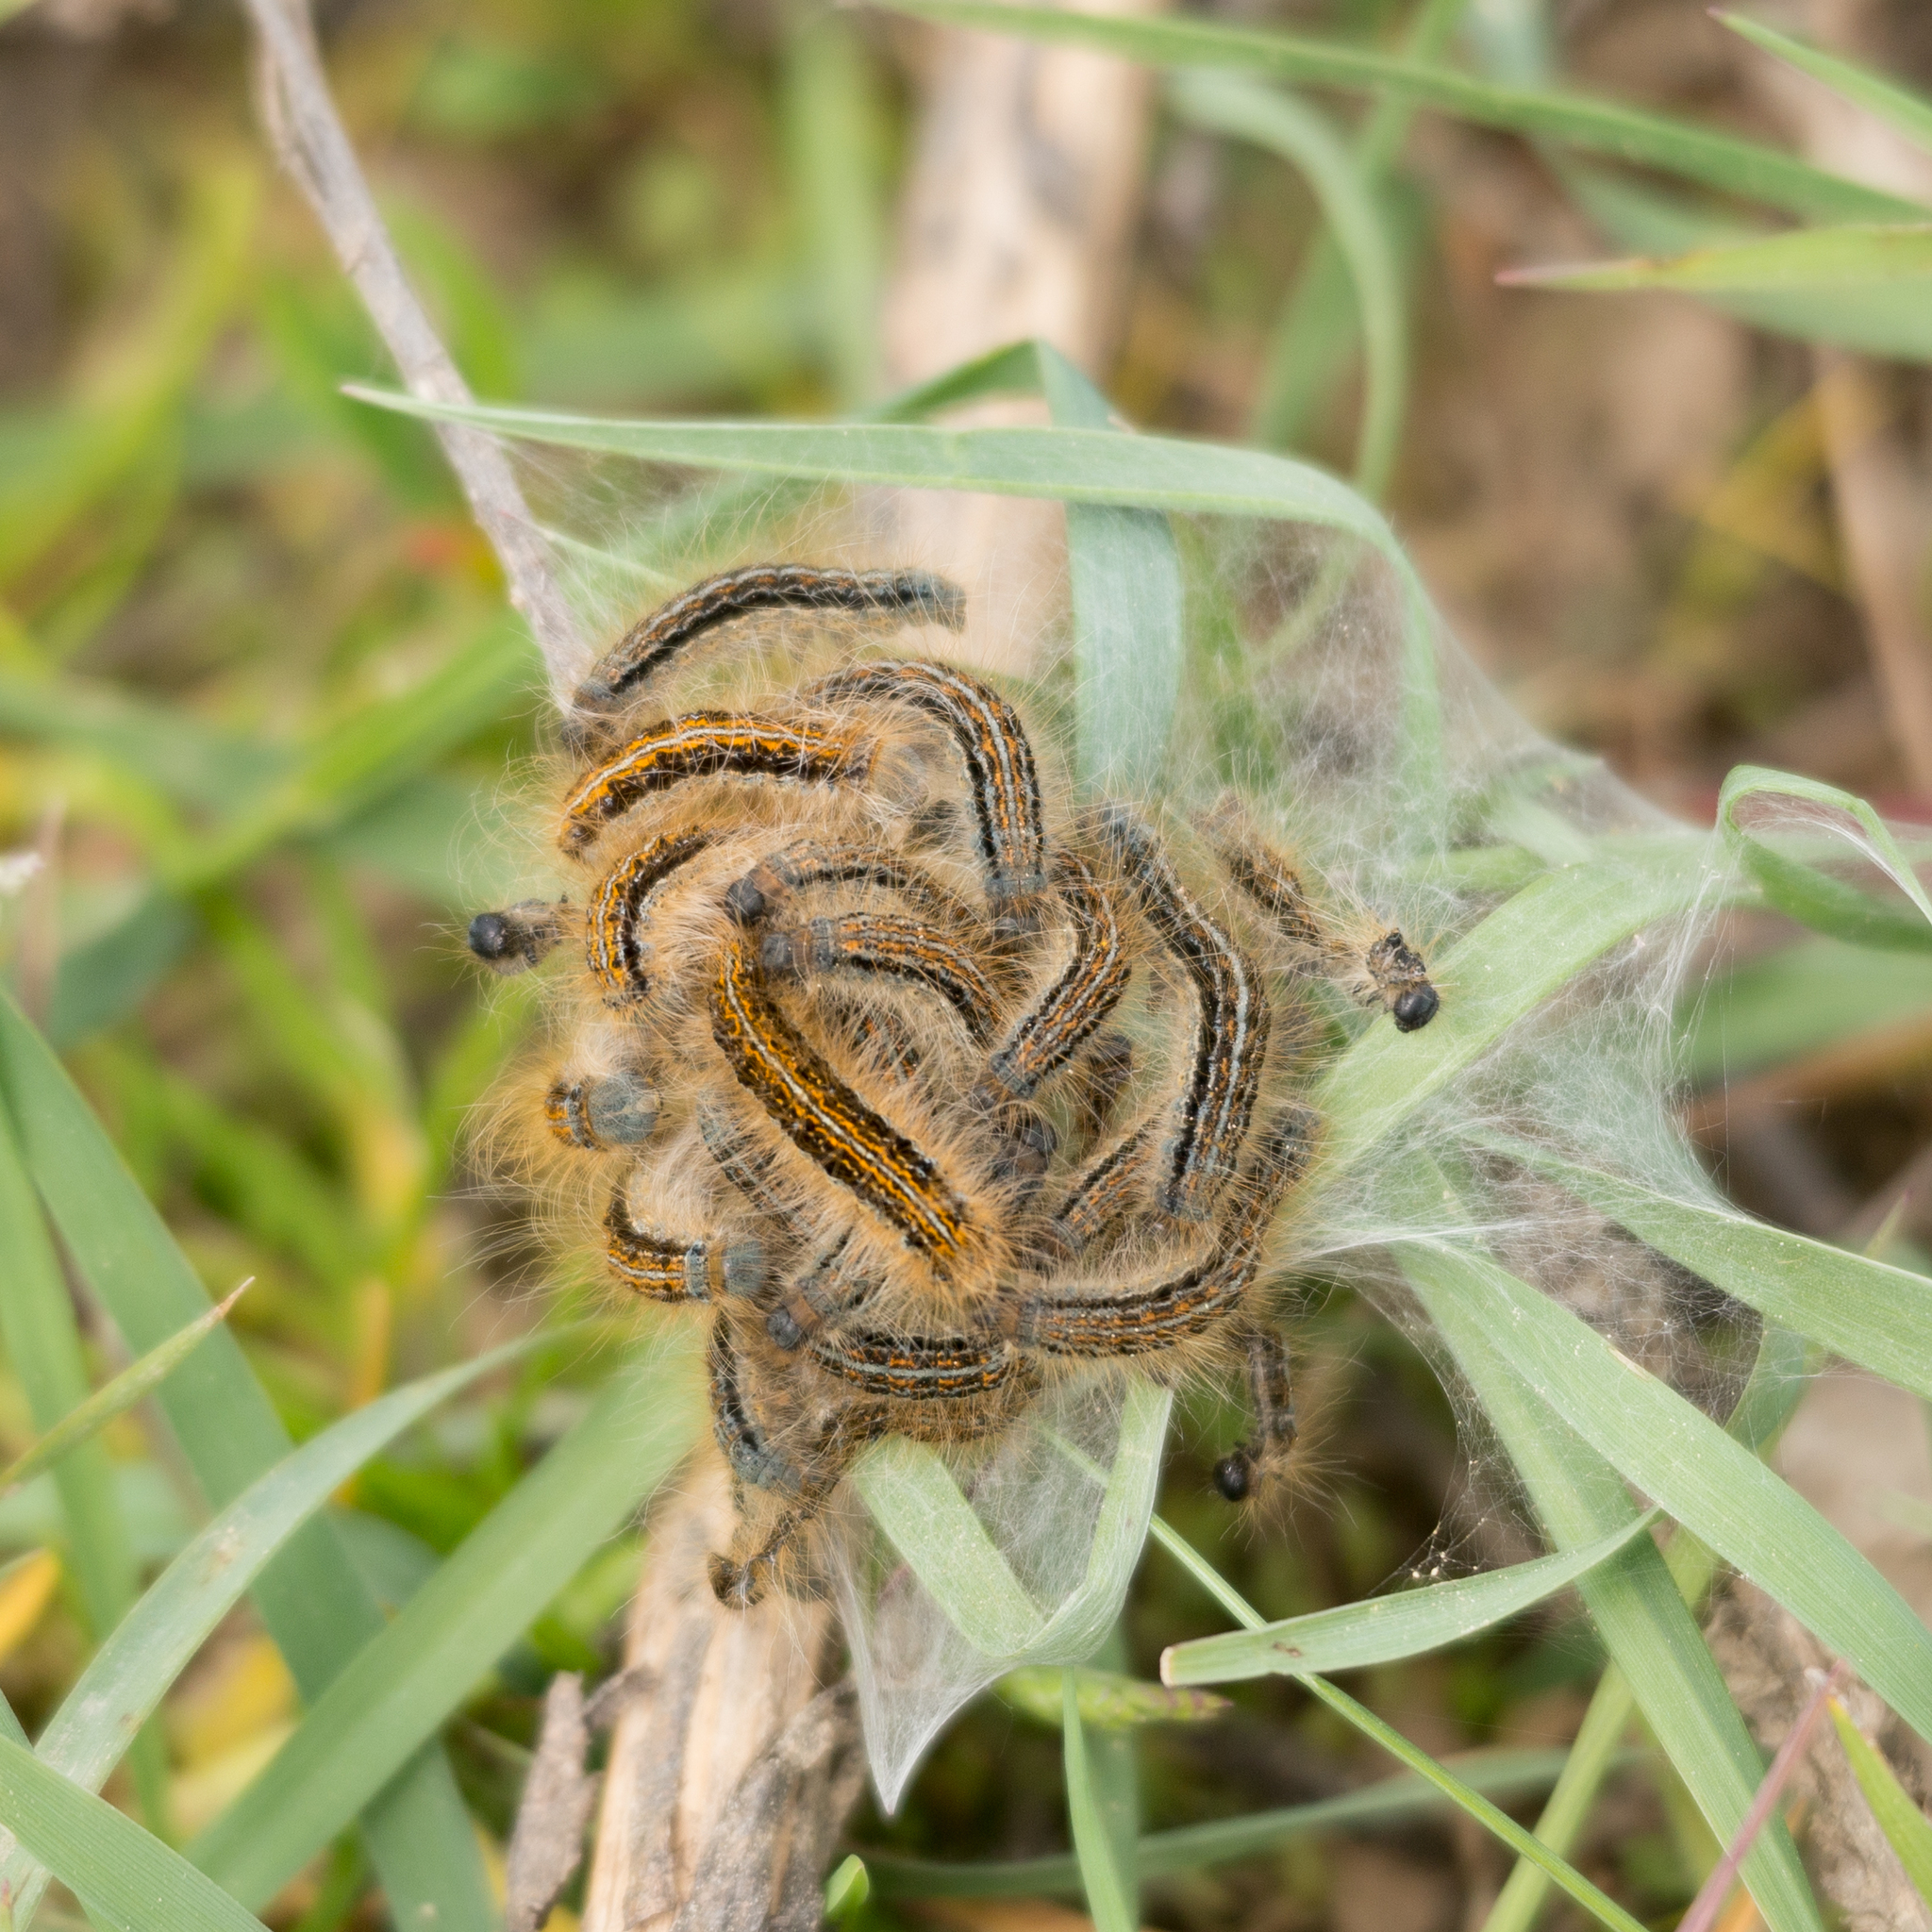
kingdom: Animalia
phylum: Arthropoda
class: Insecta
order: Lepidoptera
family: Lasiocampidae
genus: Malacosoma
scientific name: Malacosoma castrense
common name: Ground lackey
